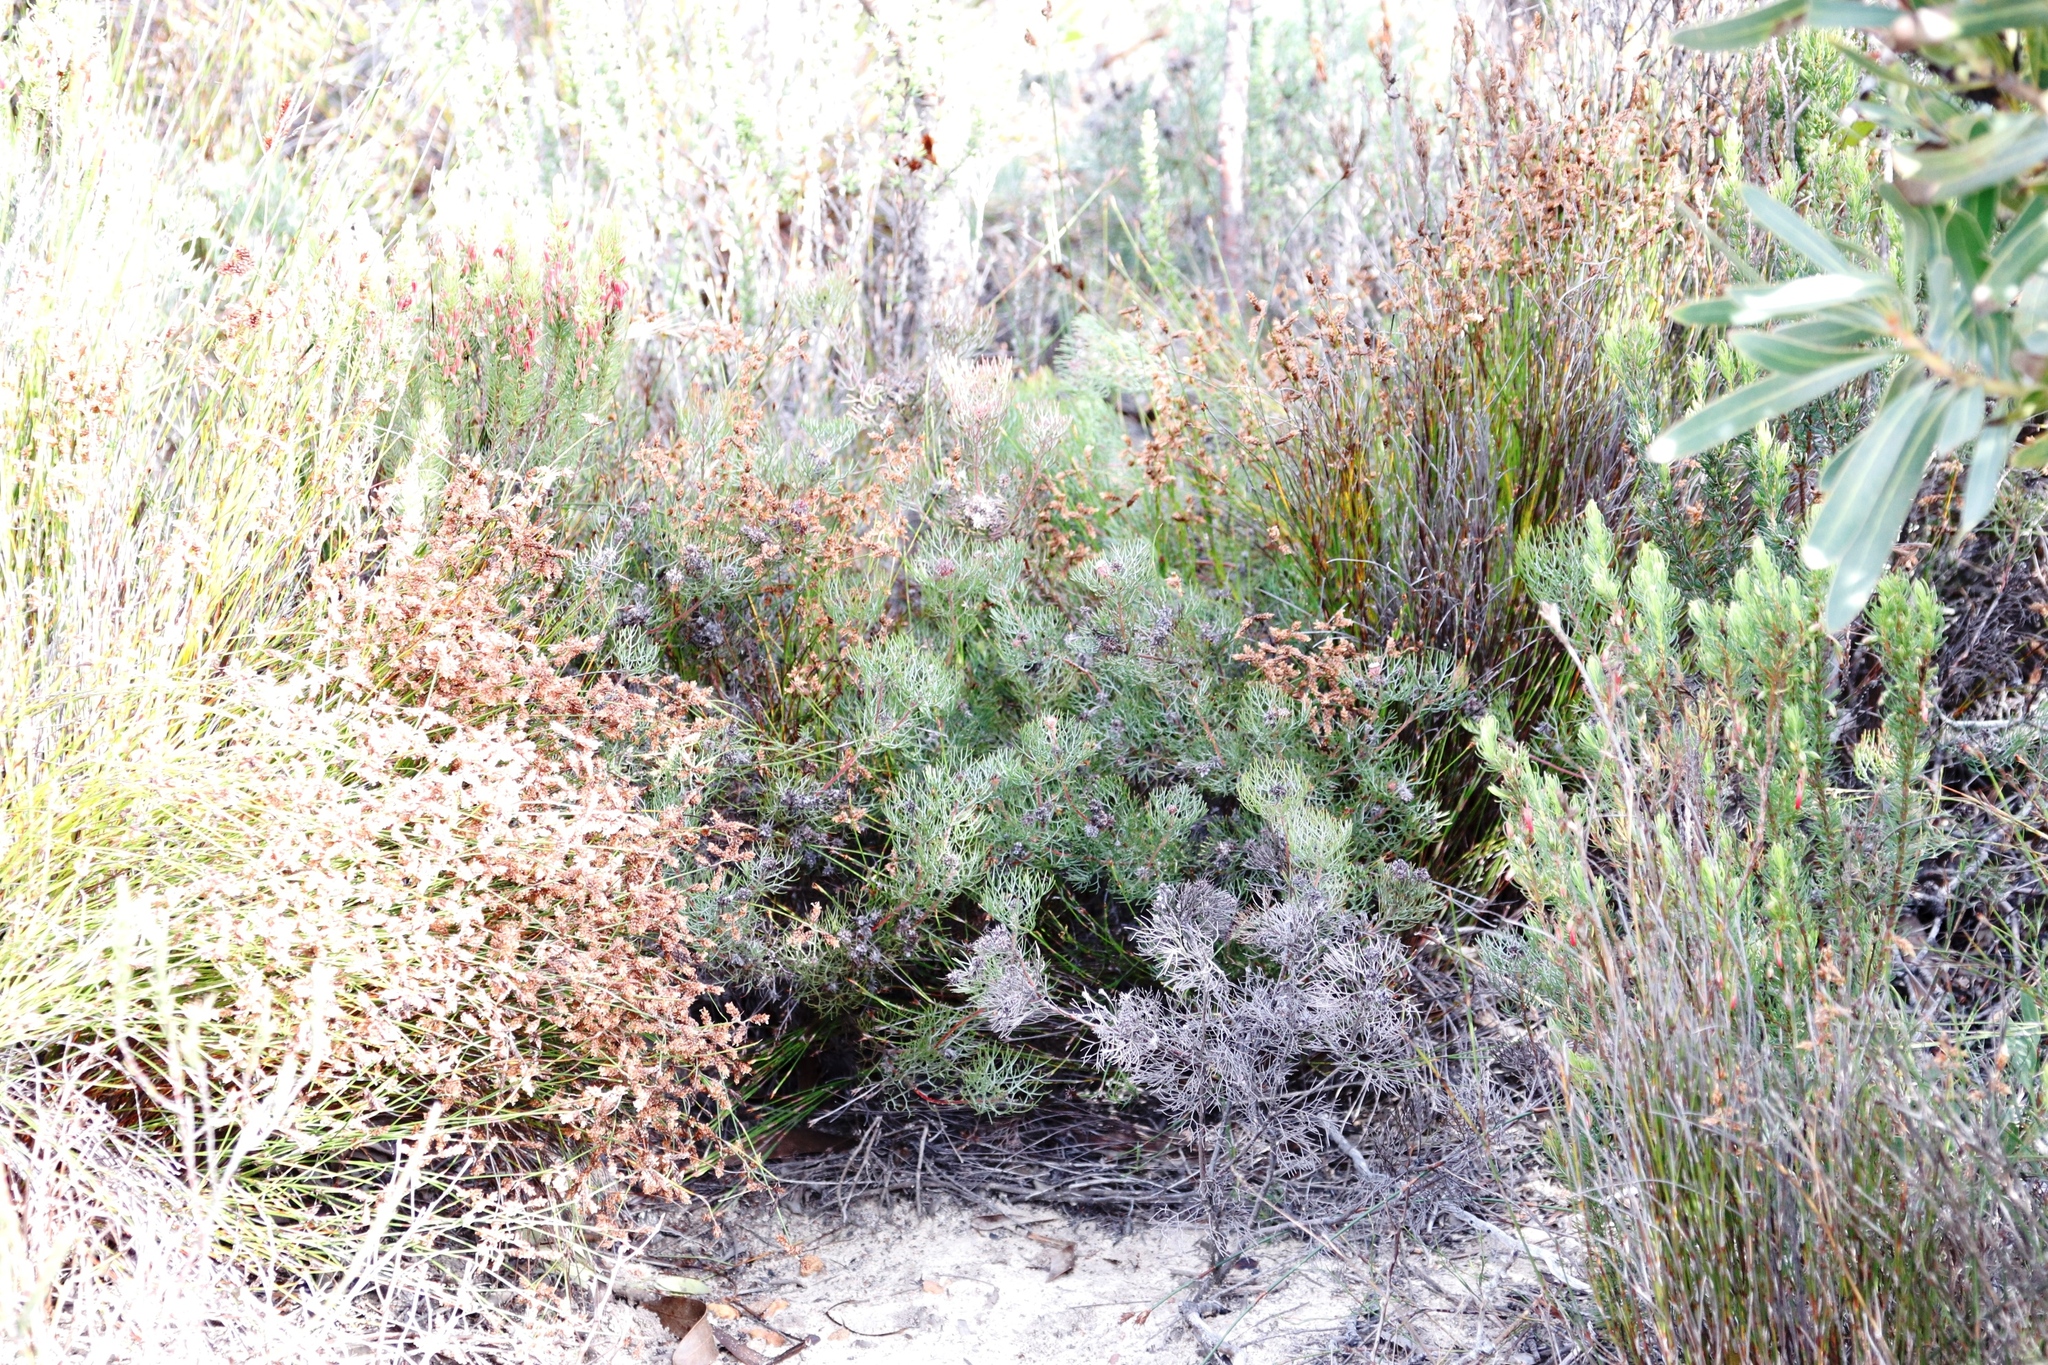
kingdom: Plantae
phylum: Tracheophyta
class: Magnoliopsida
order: Proteales
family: Proteaceae
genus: Serruria
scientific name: Serruria fasciflora
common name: Common pin spiderhead
